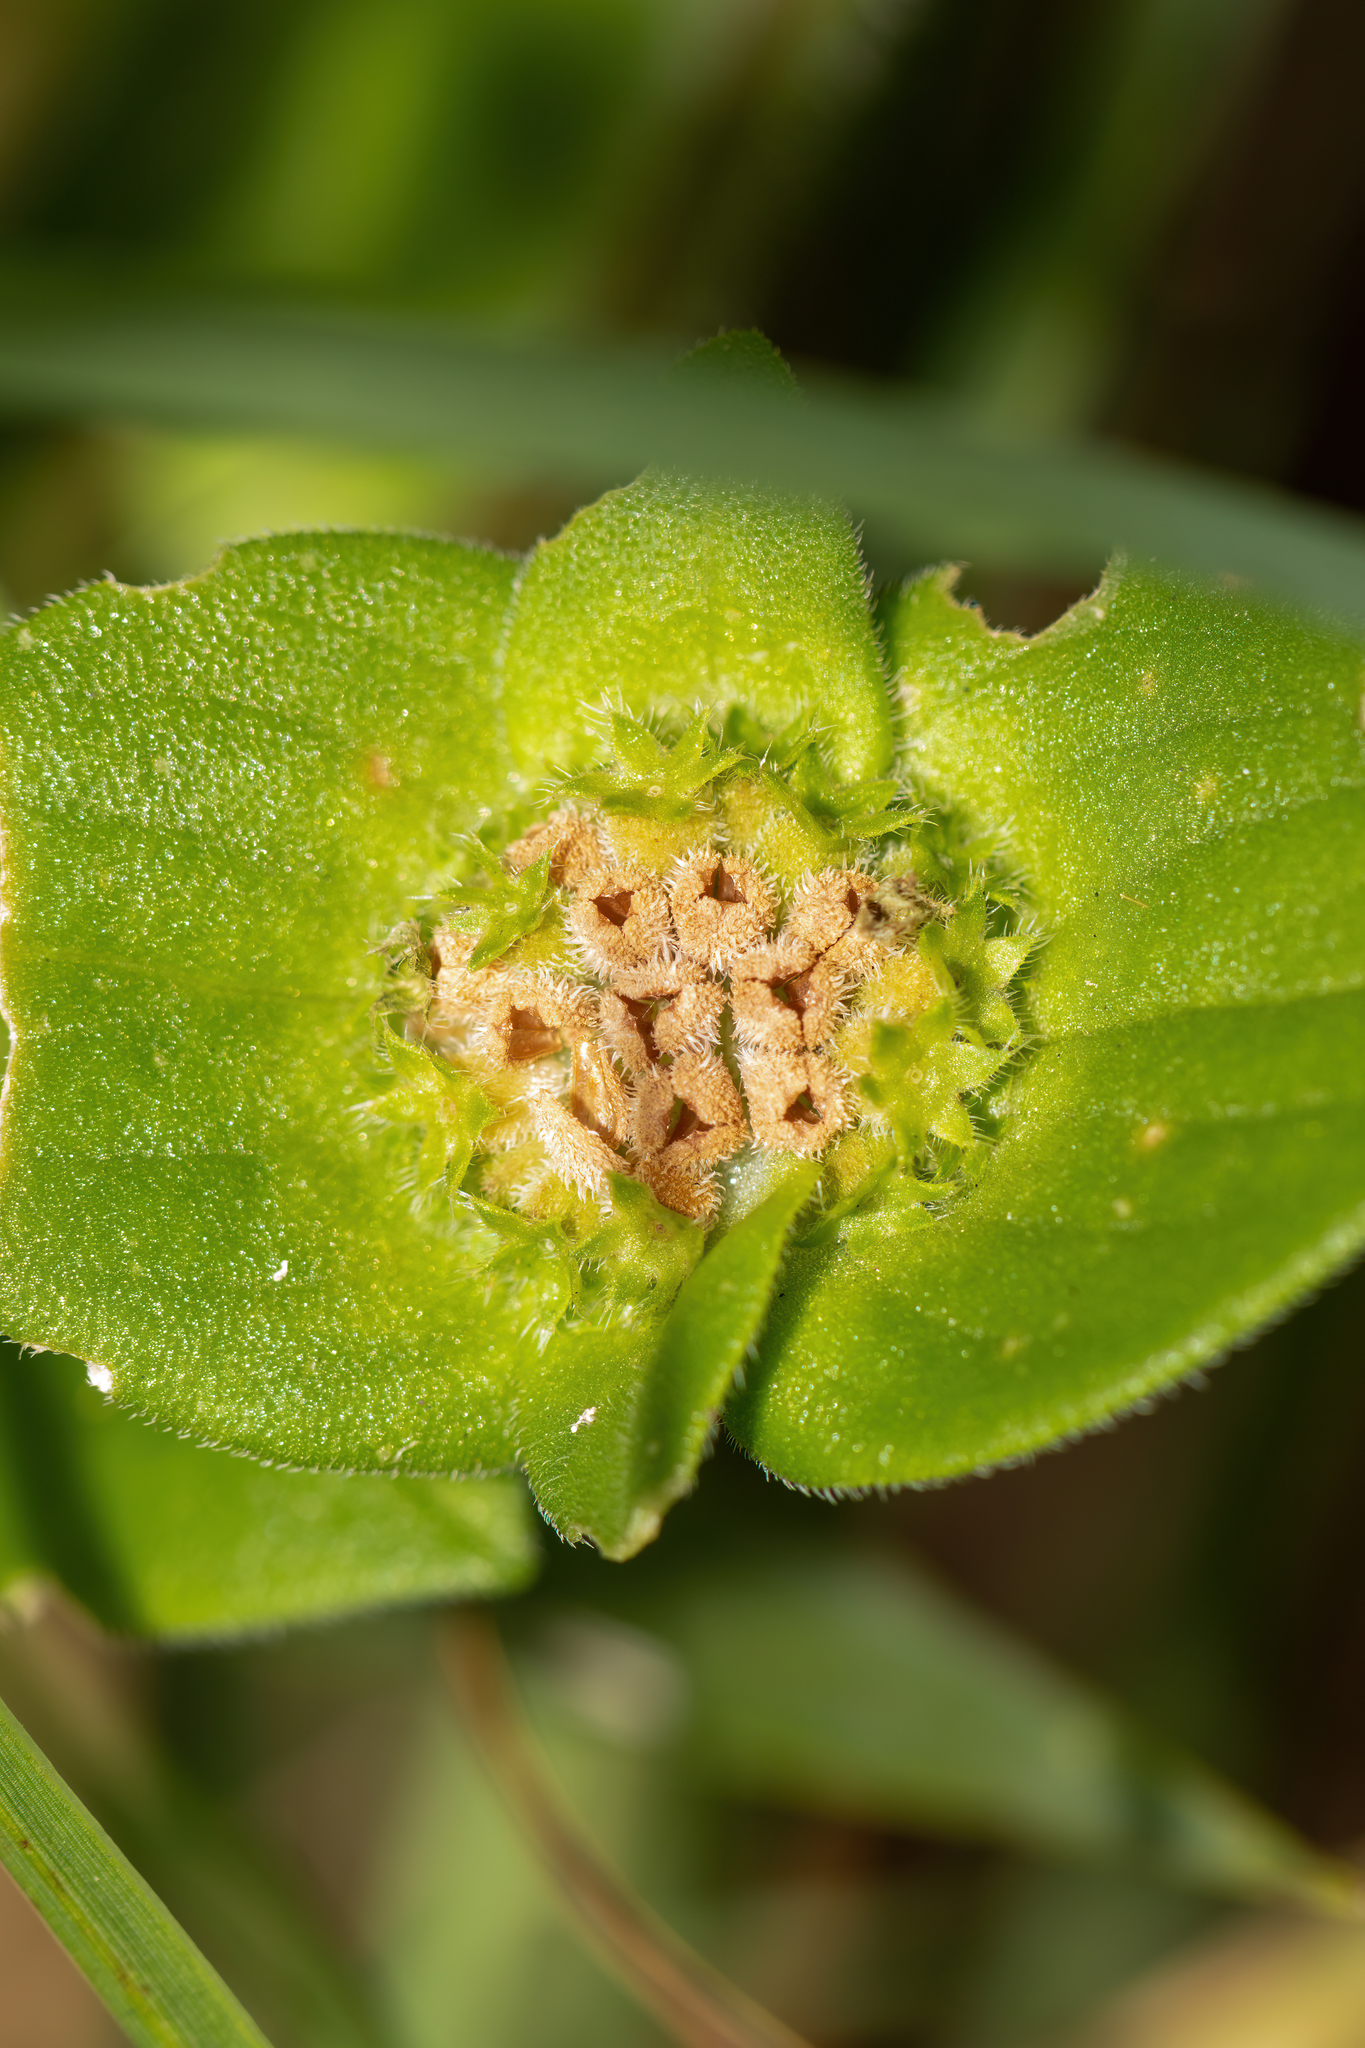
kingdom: Plantae
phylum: Tracheophyta
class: Magnoliopsida
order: Gentianales
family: Rubiaceae
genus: Richardia
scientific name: Richardia brasiliensis
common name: Tropical mexican clover
